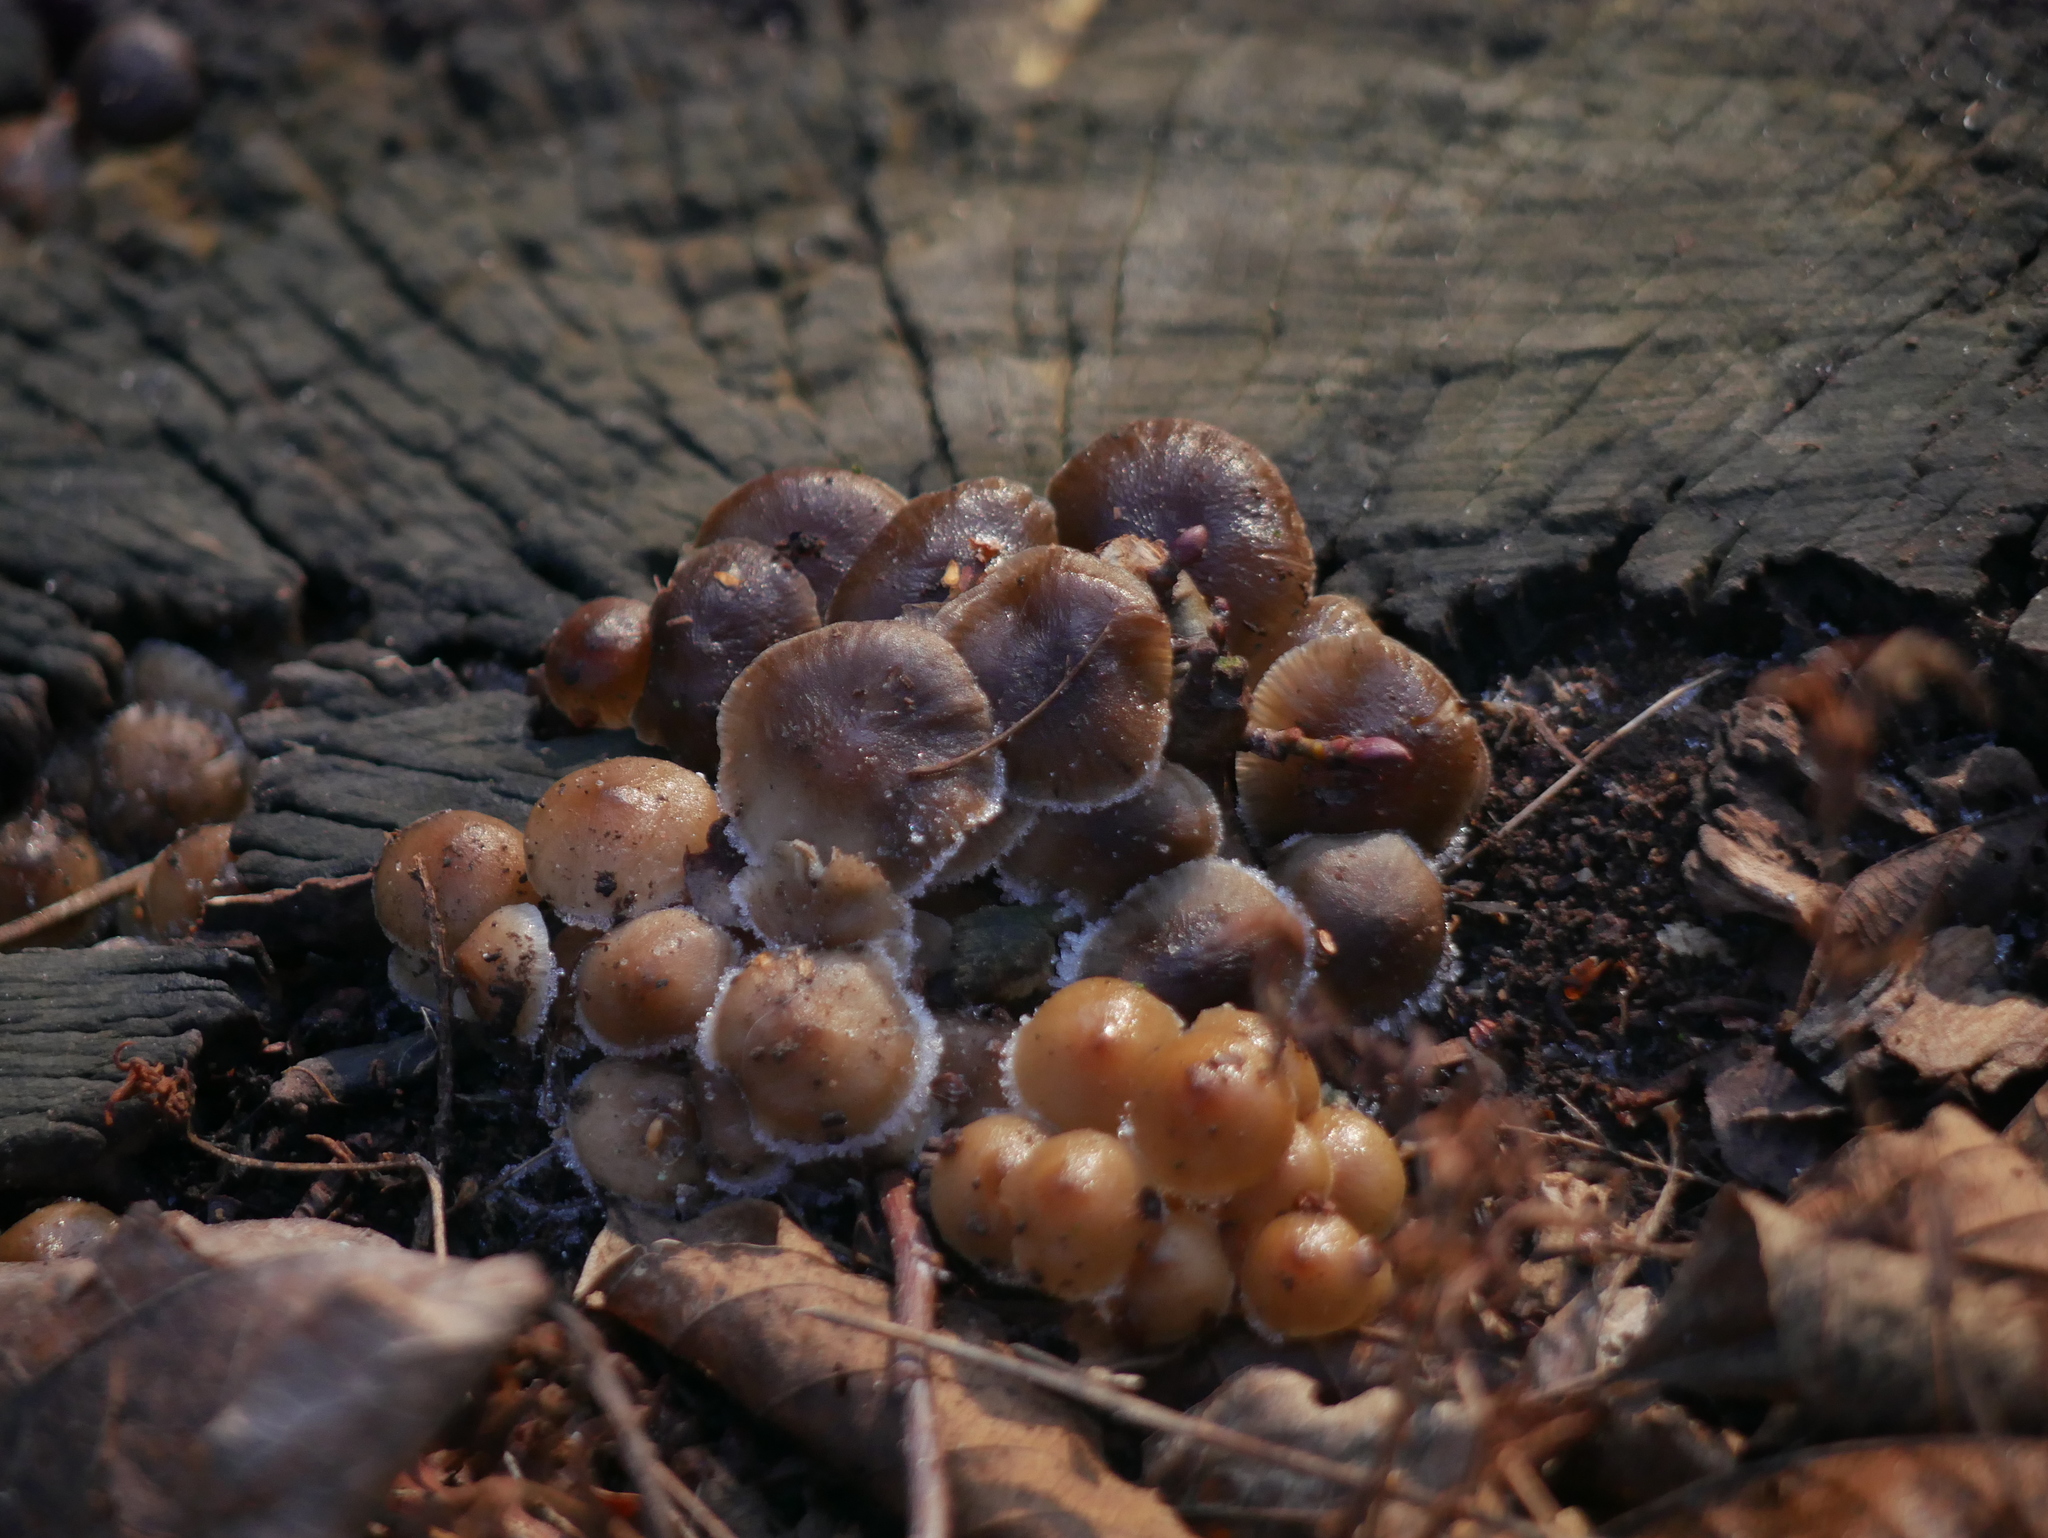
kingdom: Fungi
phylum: Basidiomycota
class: Agaricomycetes
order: Agaricales
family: Physalacriaceae
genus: Armillaria
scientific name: Armillaria mellea
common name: Honey fungus
